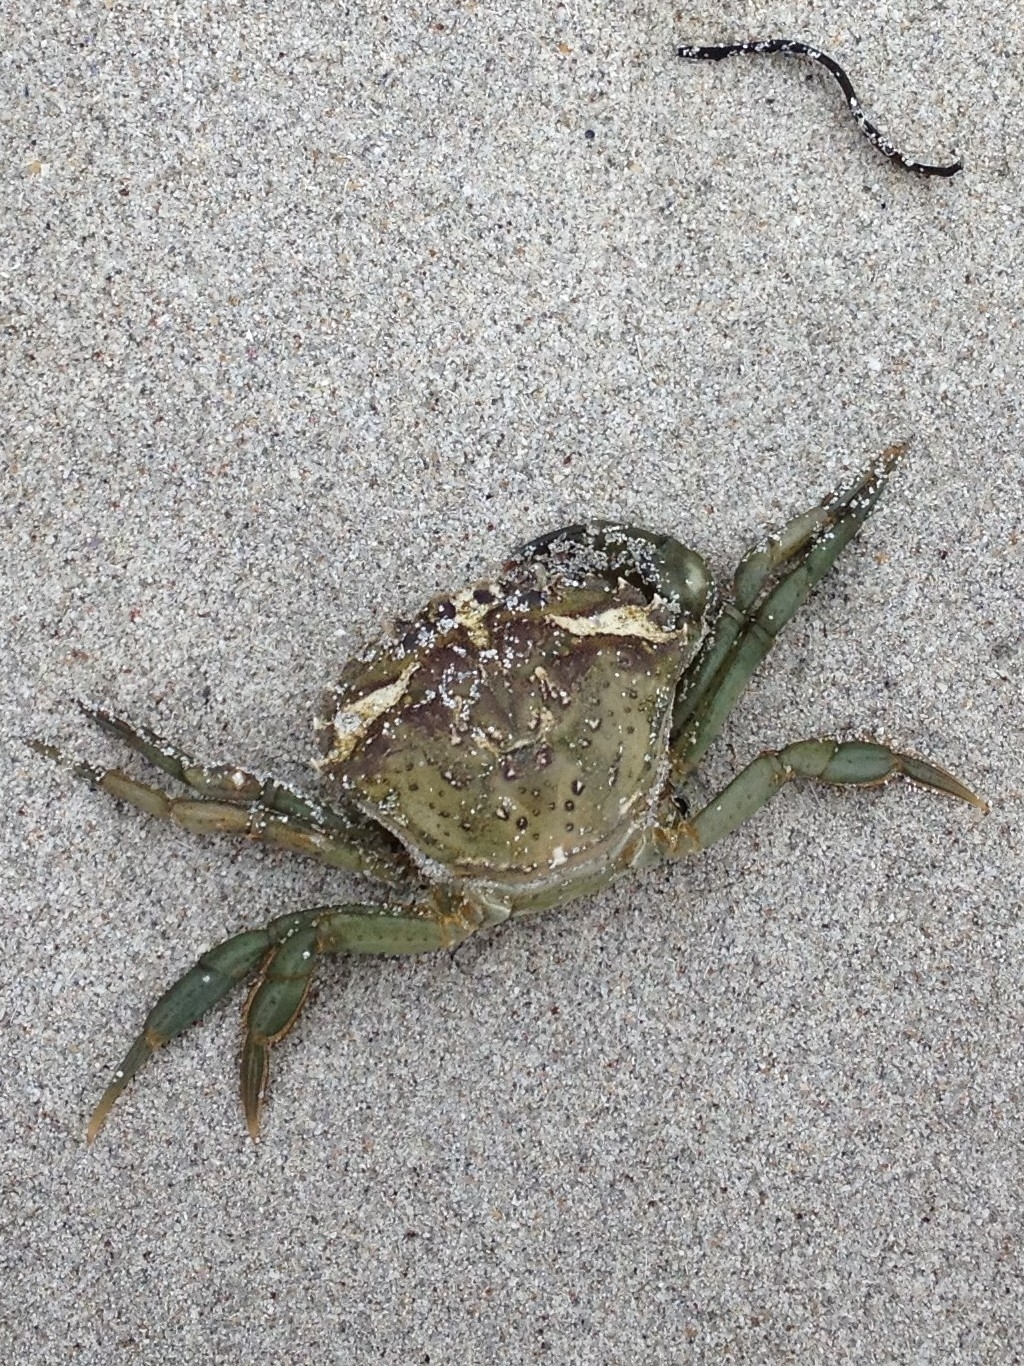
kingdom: Animalia
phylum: Arthropoda
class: Malacostraca
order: Decapoda
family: Carcinidae
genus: Carcinus
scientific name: Carcinus maenas
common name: European green crab
